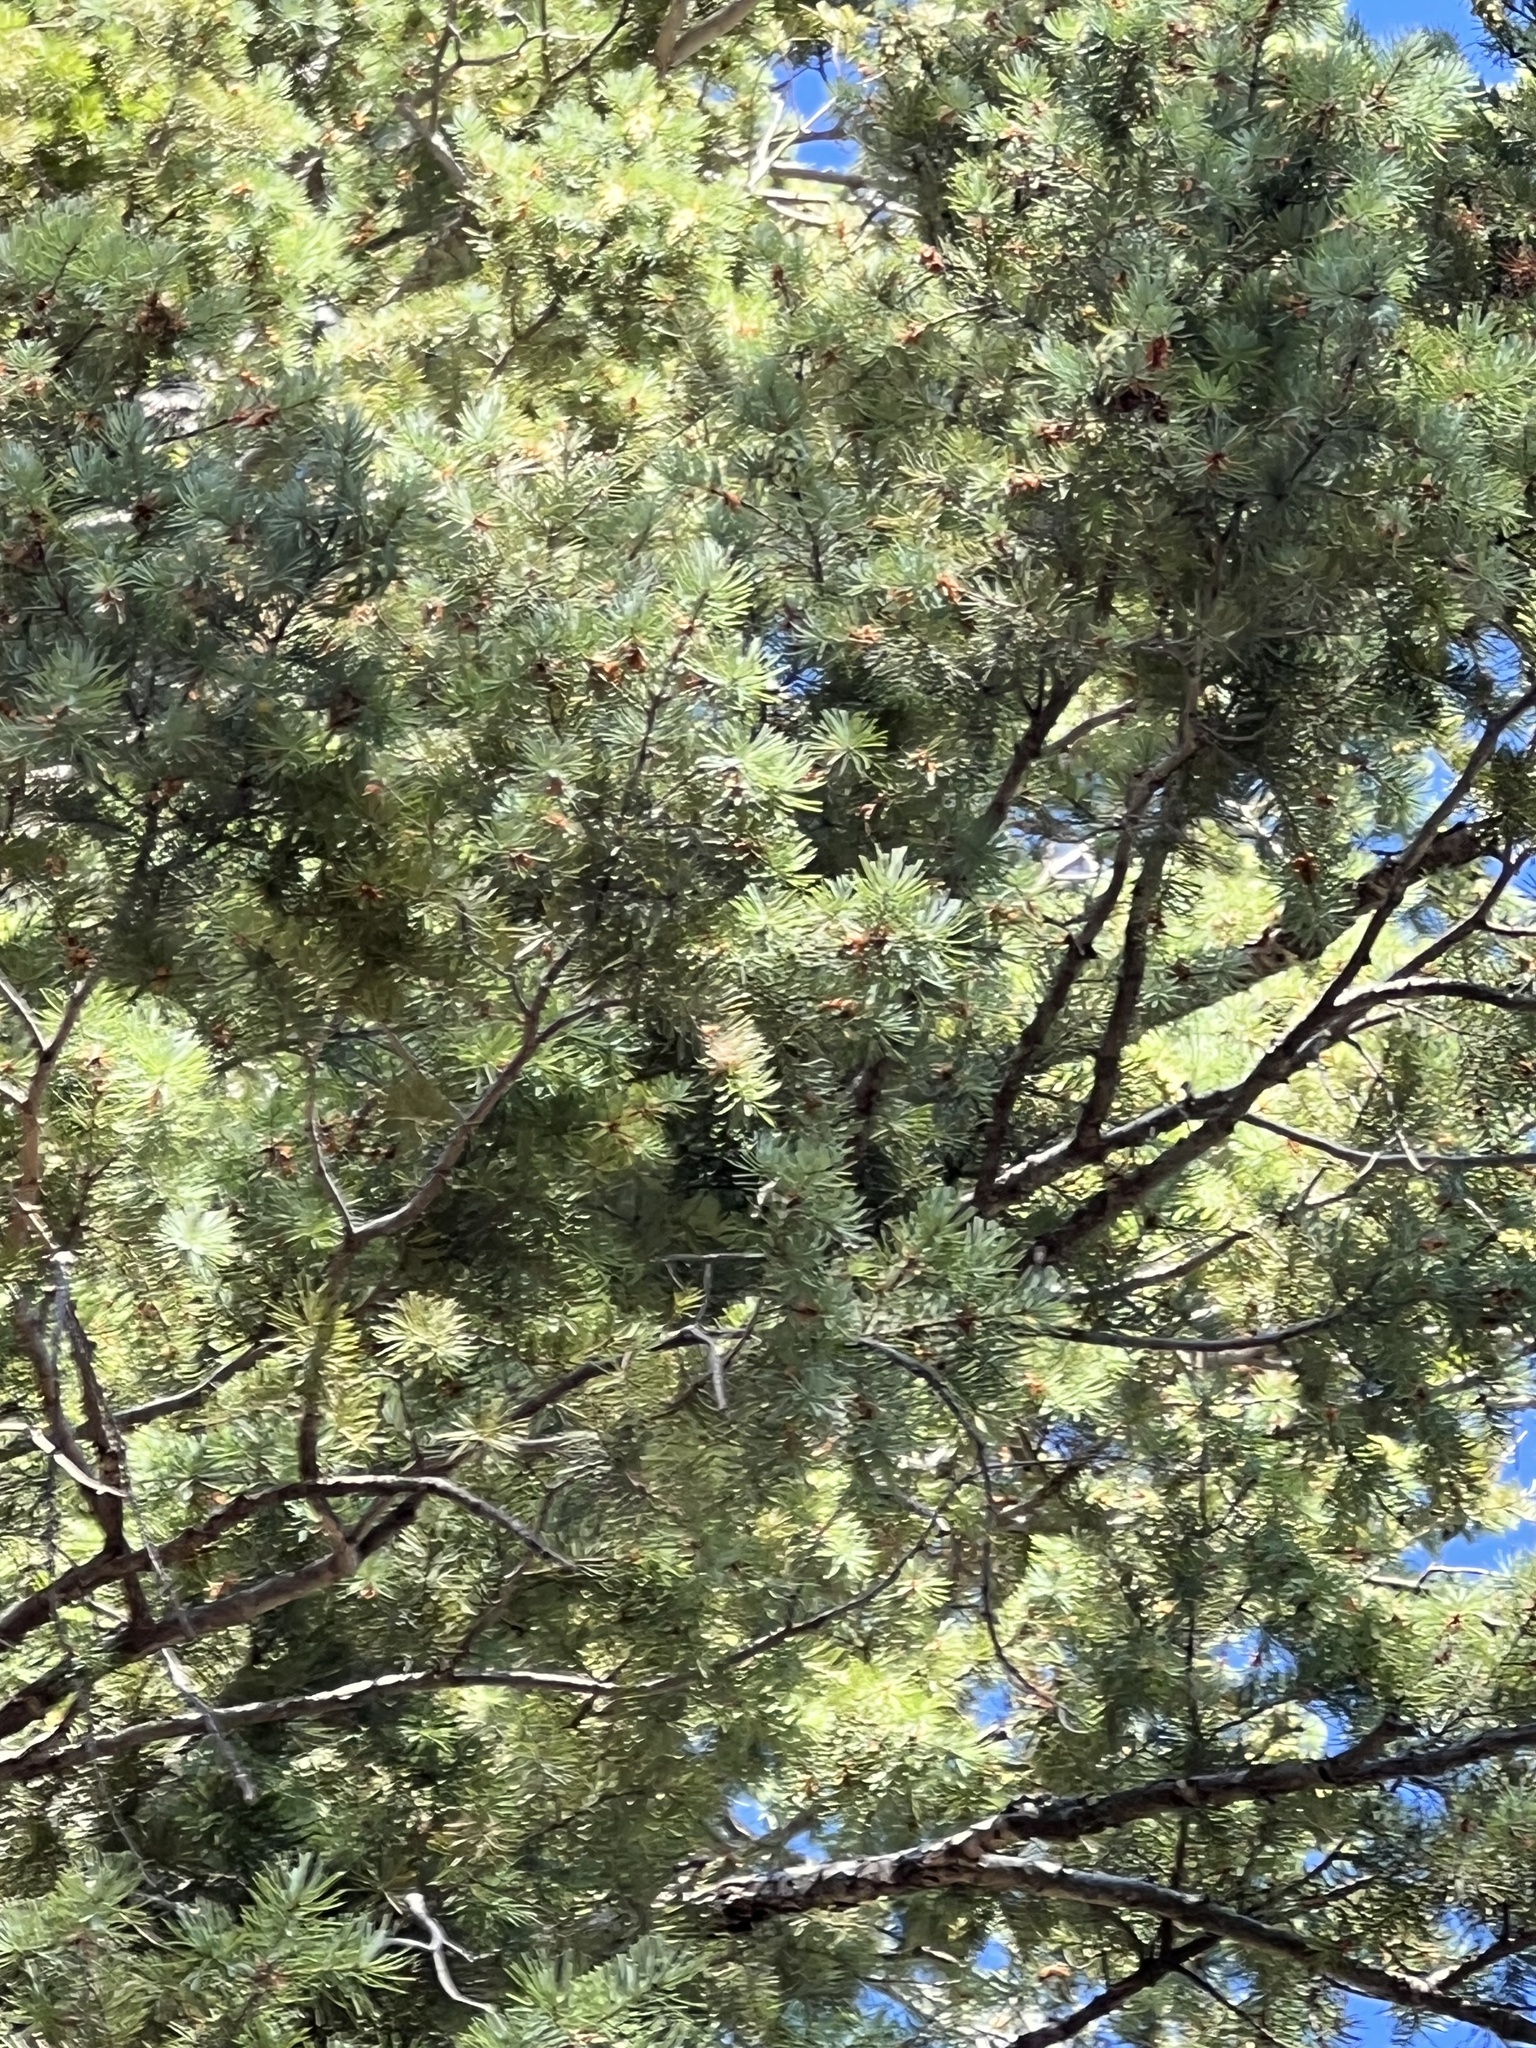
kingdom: Plantae
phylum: Tracheophyta
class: Pinopsida
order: Pinales
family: Pinaceae
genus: Pseudotsuga
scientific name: Pseudotsuga menziesii
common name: Douglas fir
